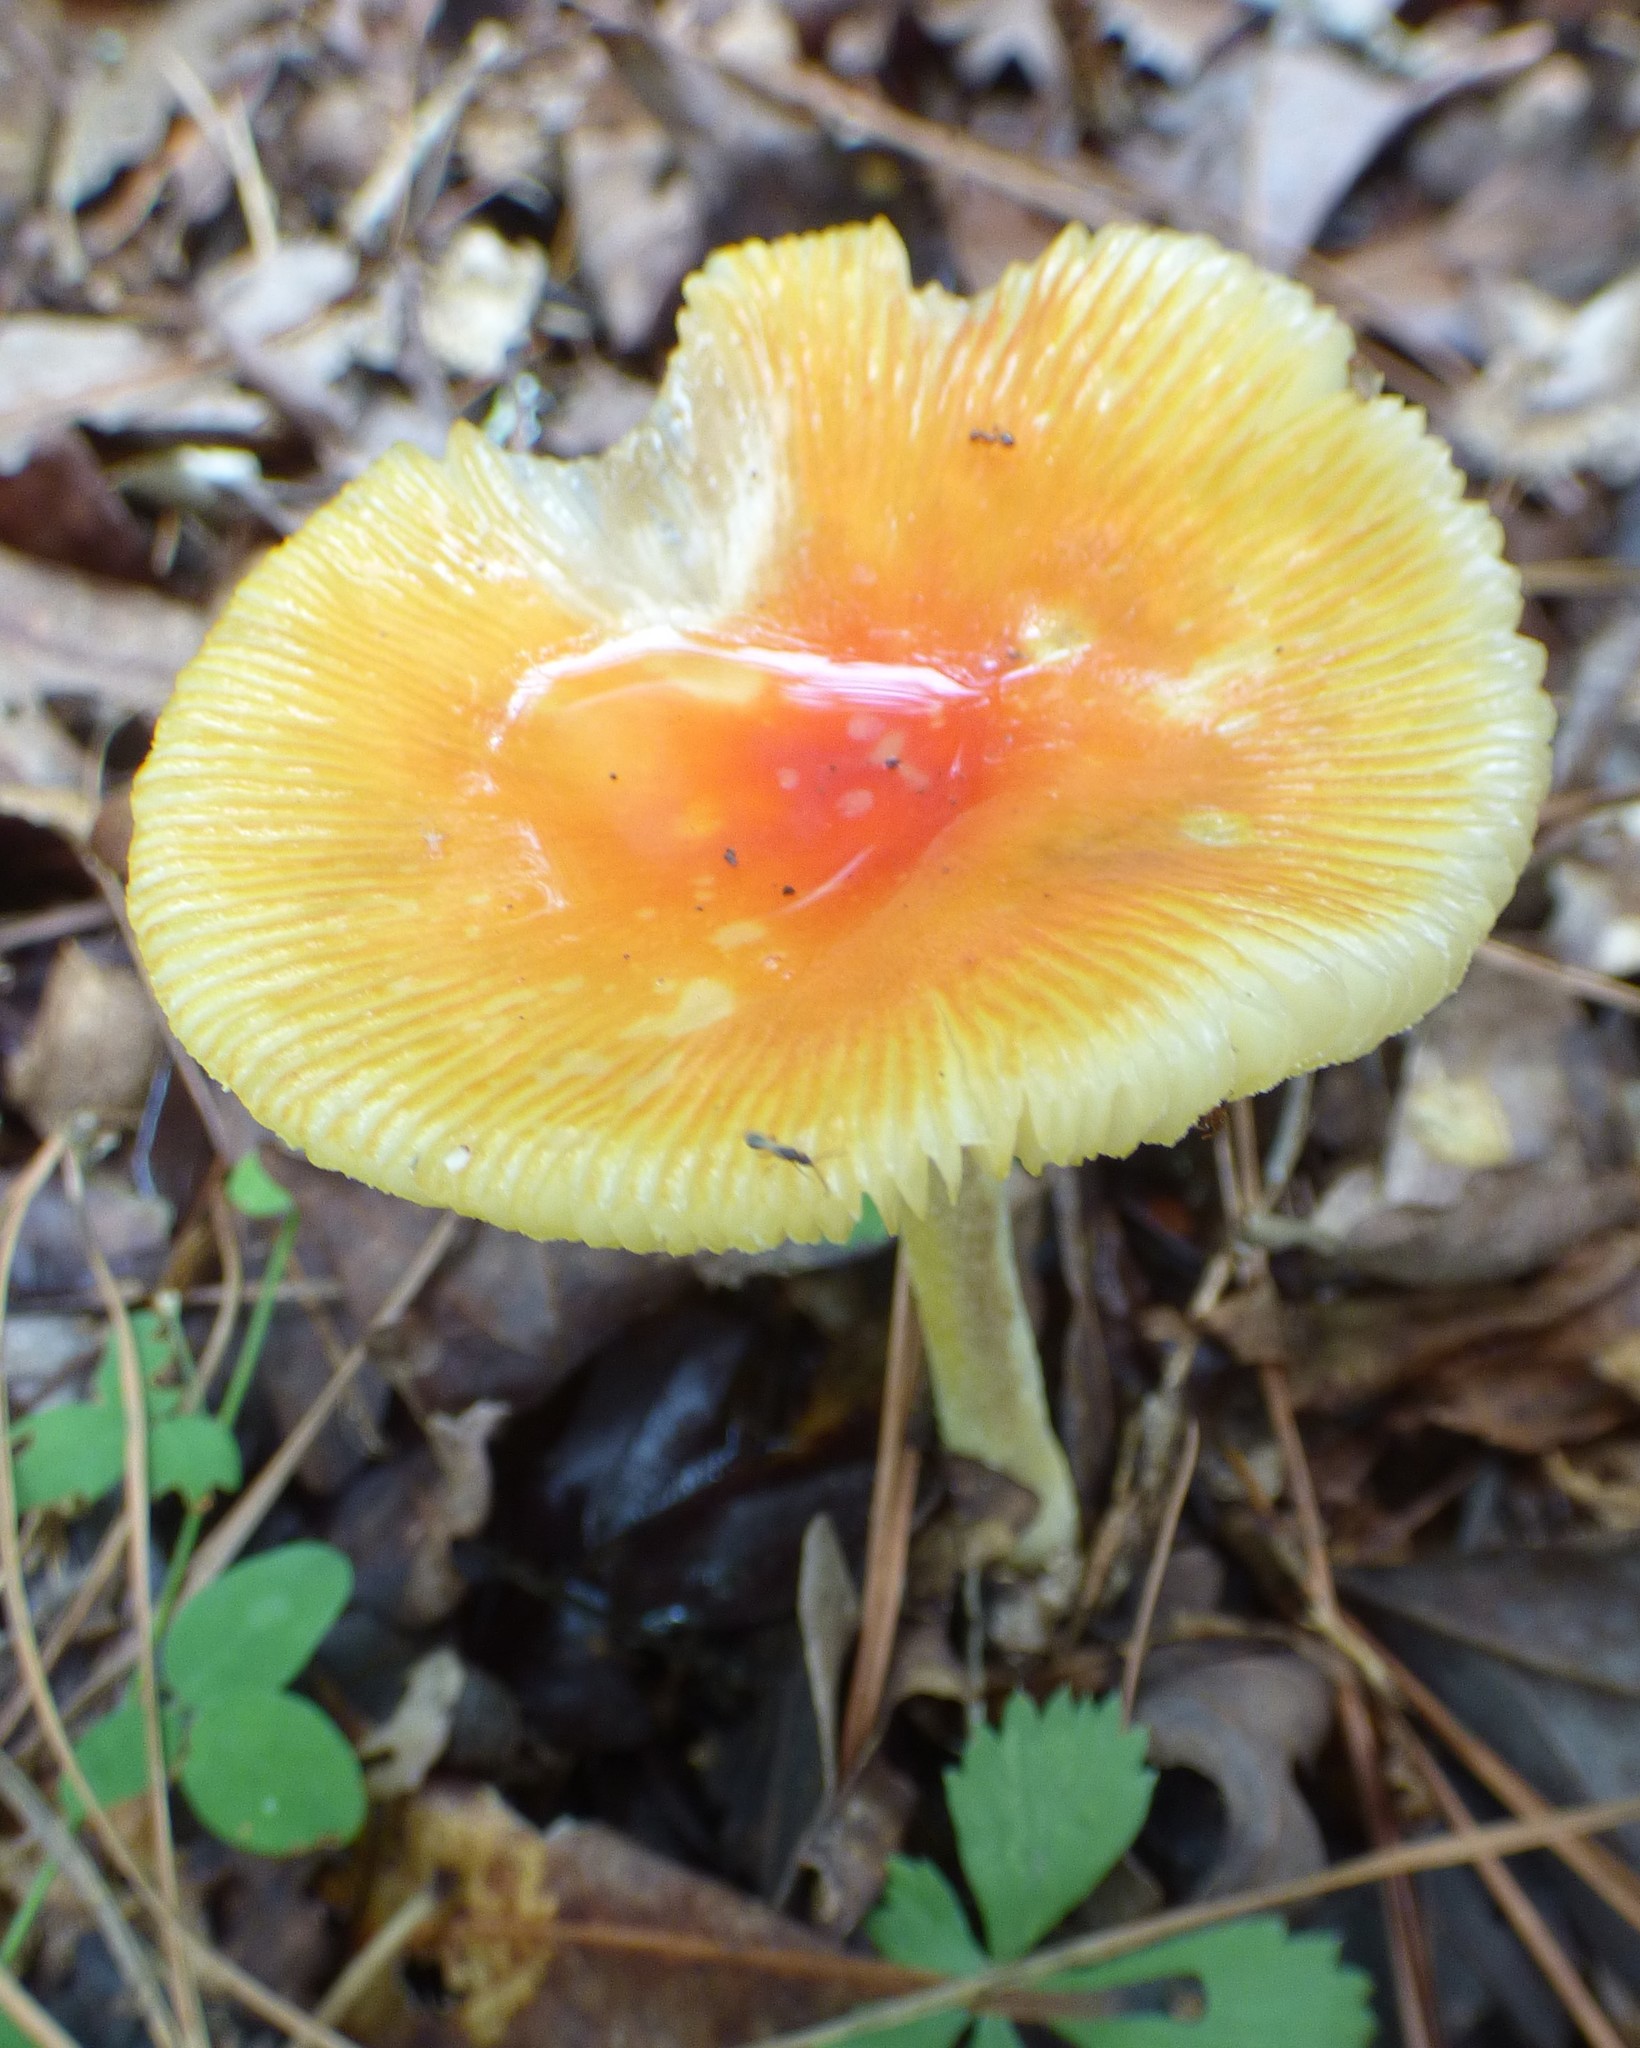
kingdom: Fungi
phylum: Basidiomycota
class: Agaricomycetes
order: Agaricales
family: Amanitaceae
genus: Amanita
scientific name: Amanita parcivolvata
